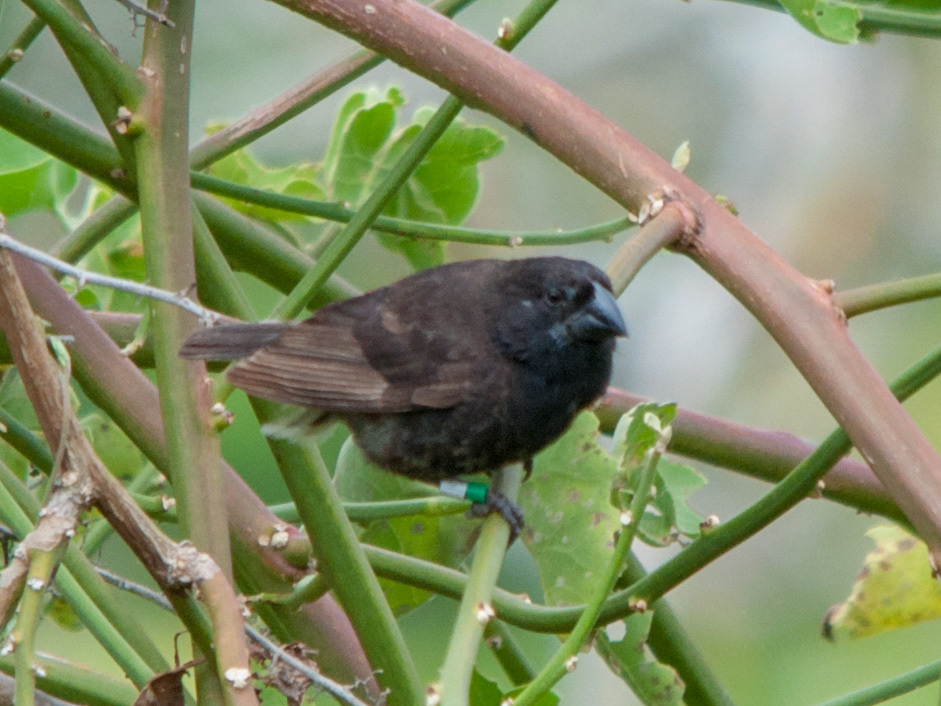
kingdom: Animalia
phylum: Chordata
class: Aves
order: Passeriformes
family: Thraupidae
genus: Geospiza
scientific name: Geospiza fortis
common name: Medium ground finch
